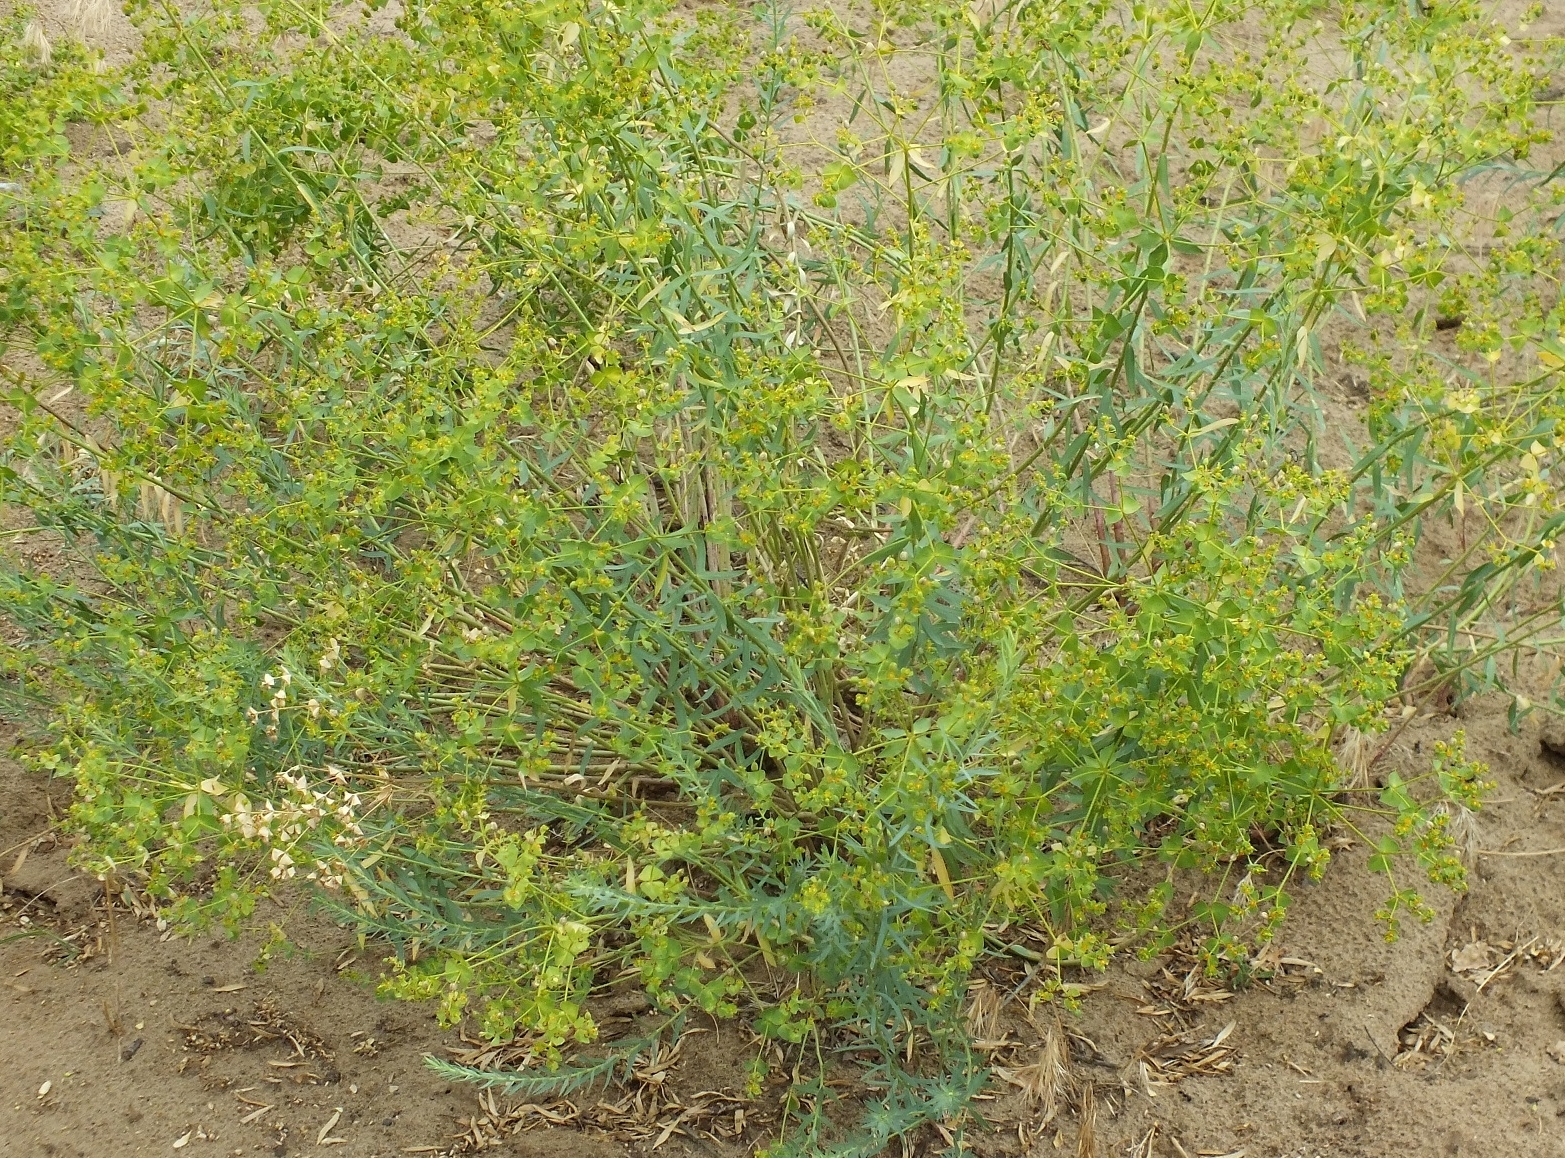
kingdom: Plantae
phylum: Tracheophyta
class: Magnoliopsida
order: Malpighiales
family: Euphorbiaceae
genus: Euphorbia
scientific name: Euphorbia seguieriana
